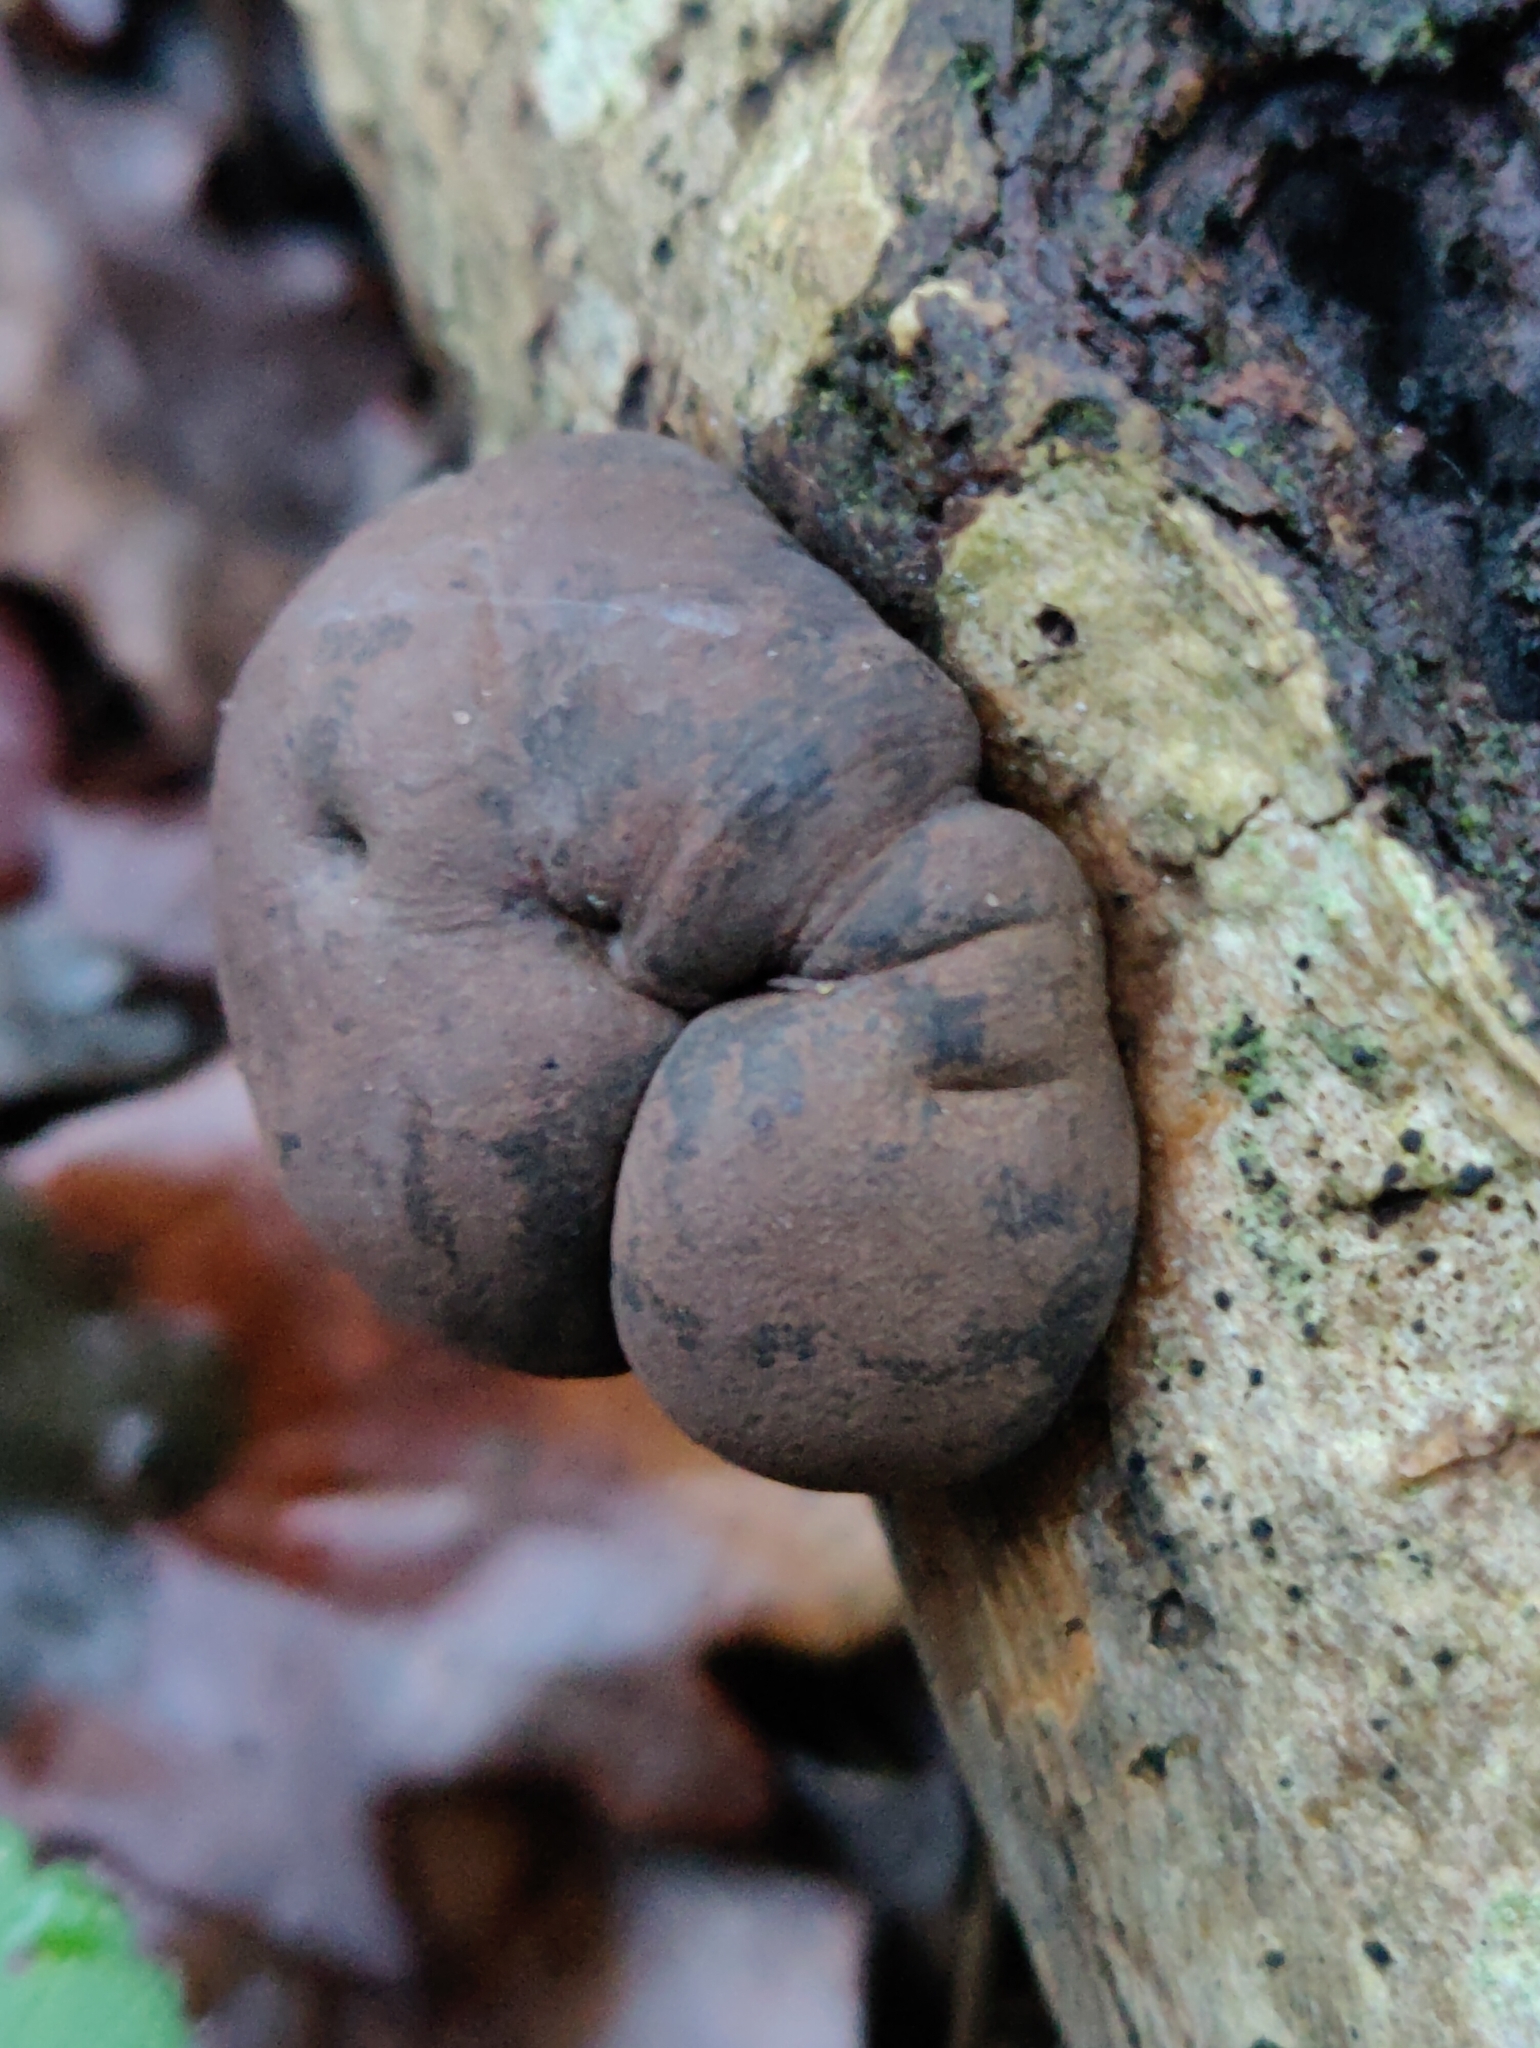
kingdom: Fungi
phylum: Ascomycota
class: Sordariomycetes
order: Xylariales
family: Hypoxylaceae
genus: Daldinia
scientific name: Daldinia concentrica
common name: Cramp balls
